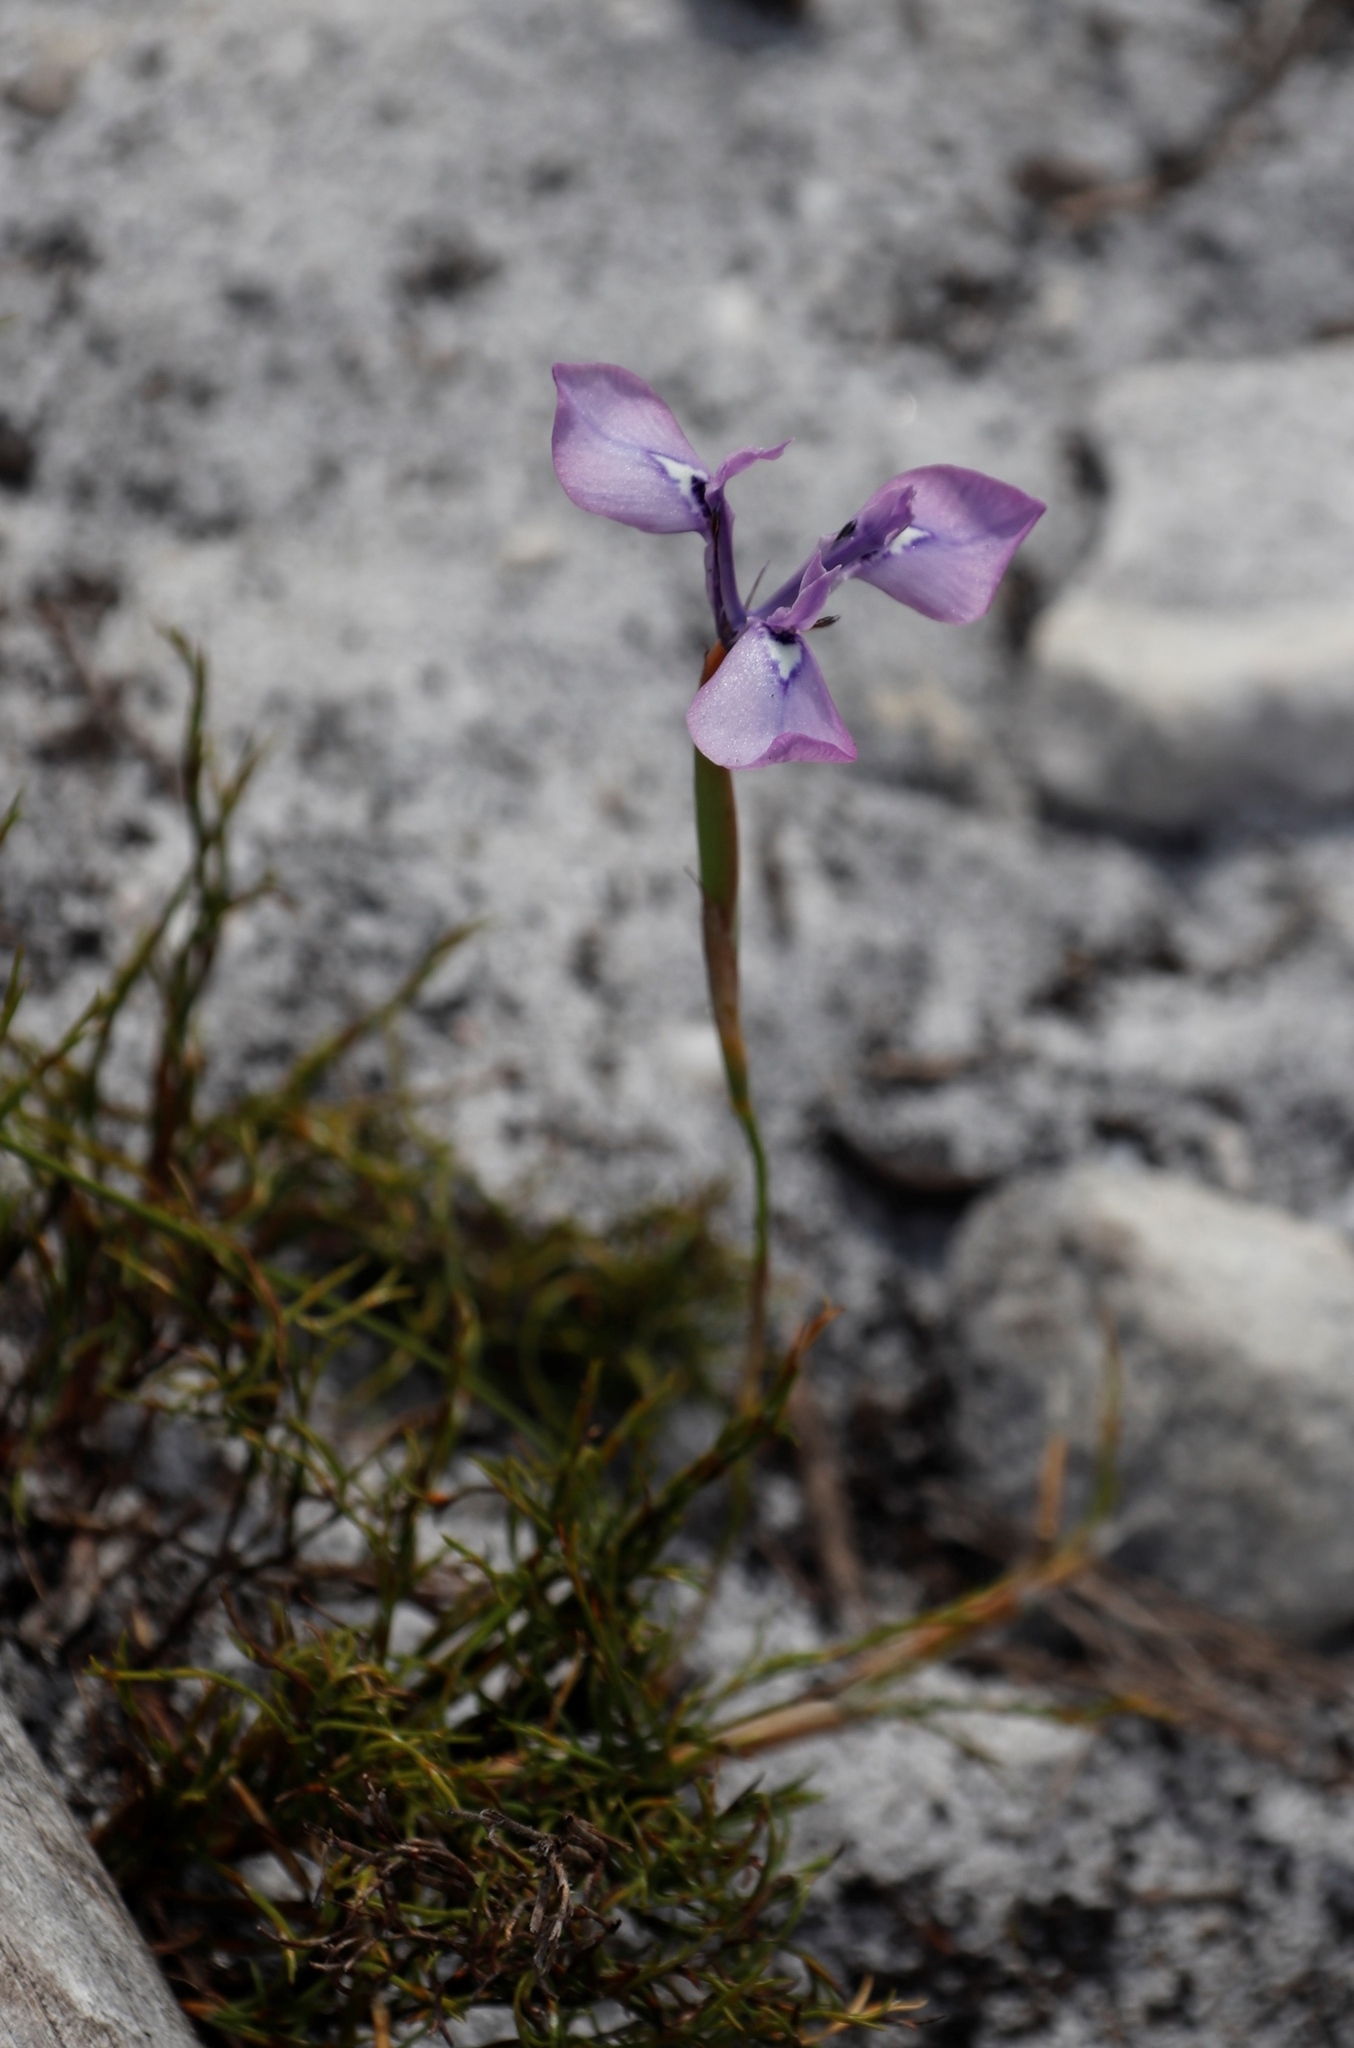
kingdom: Plantae
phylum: Tracheophyta
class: Liliopsida
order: Asparagales
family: Iridaceae
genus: Moraea
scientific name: Moraea tripetala
